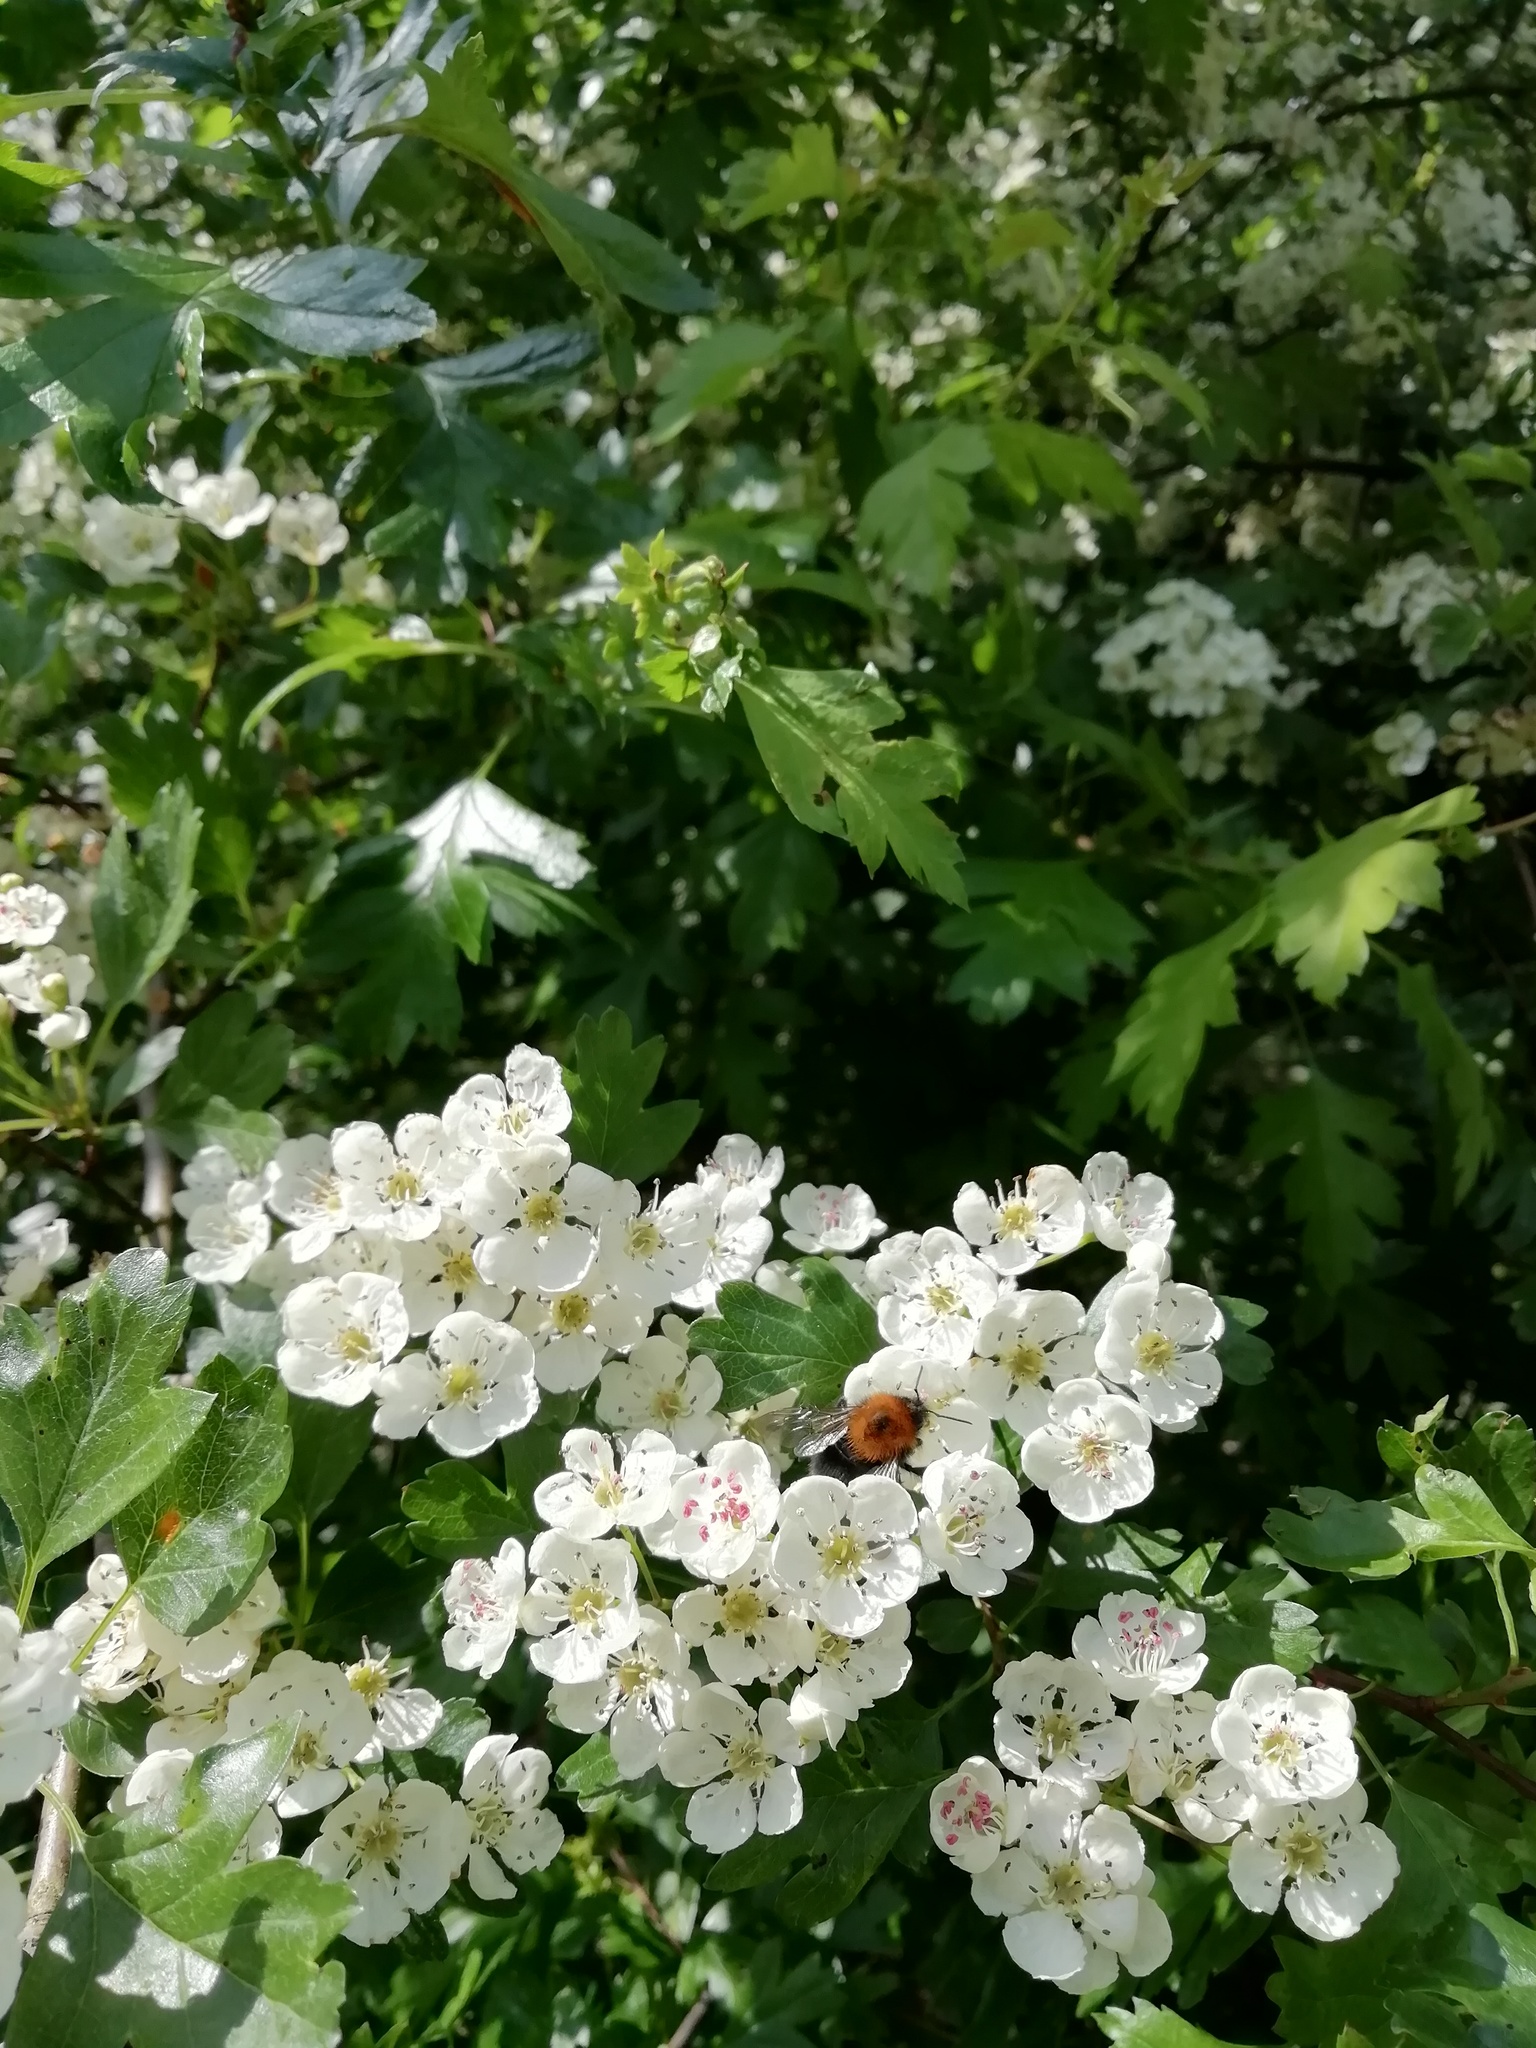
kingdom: Animalia
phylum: Arthropoda
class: Insecta
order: Hymenoptera
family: Apidae
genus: Bombus
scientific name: Bombus hypnorum
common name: New garden bumblebee
